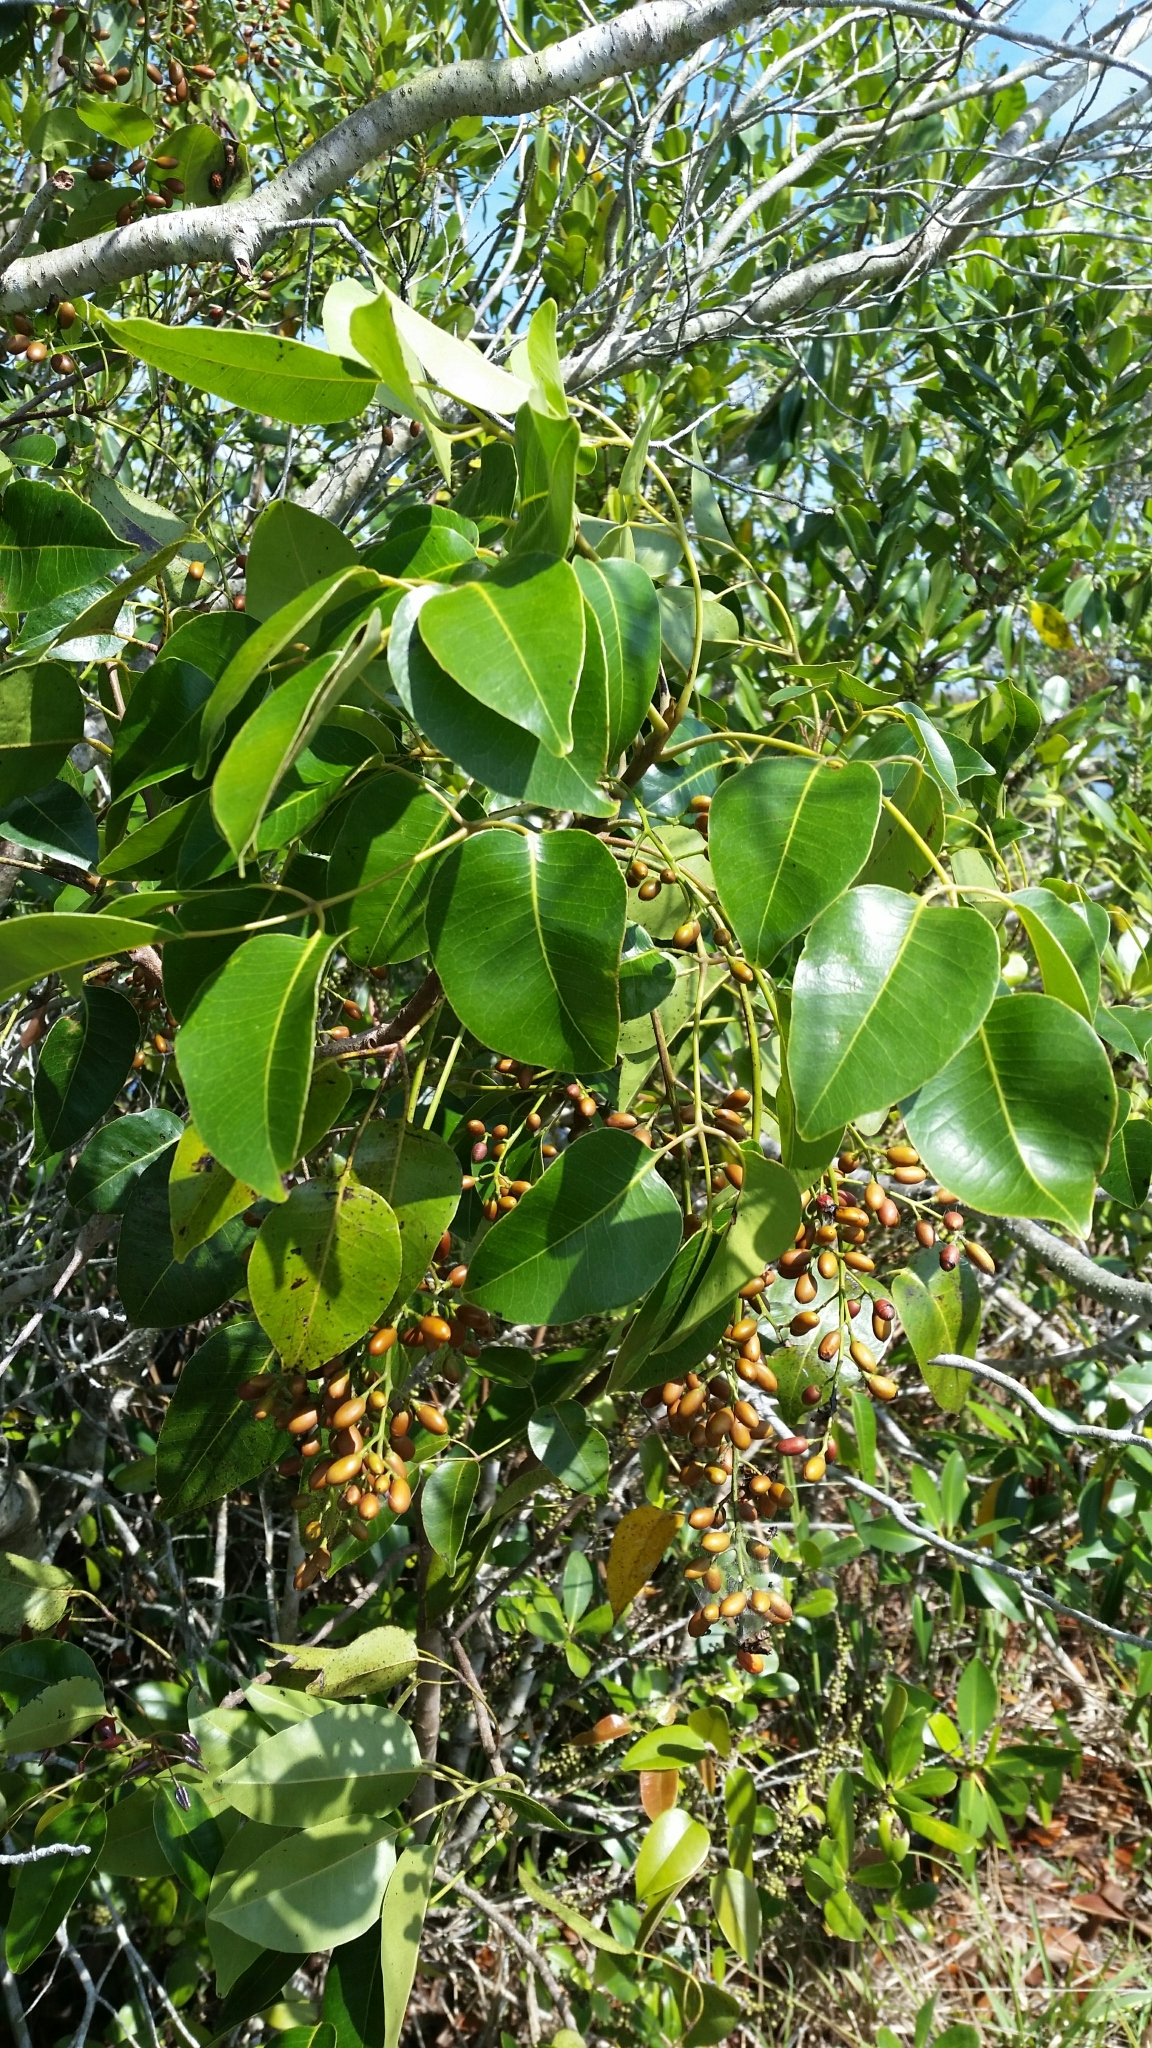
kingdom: Plantae
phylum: Tracheophyta
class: Magnoliopsida
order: Sapindales
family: Anacardiaceae
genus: Metopium
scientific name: Metopium toxiferum
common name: Florida poisontree
